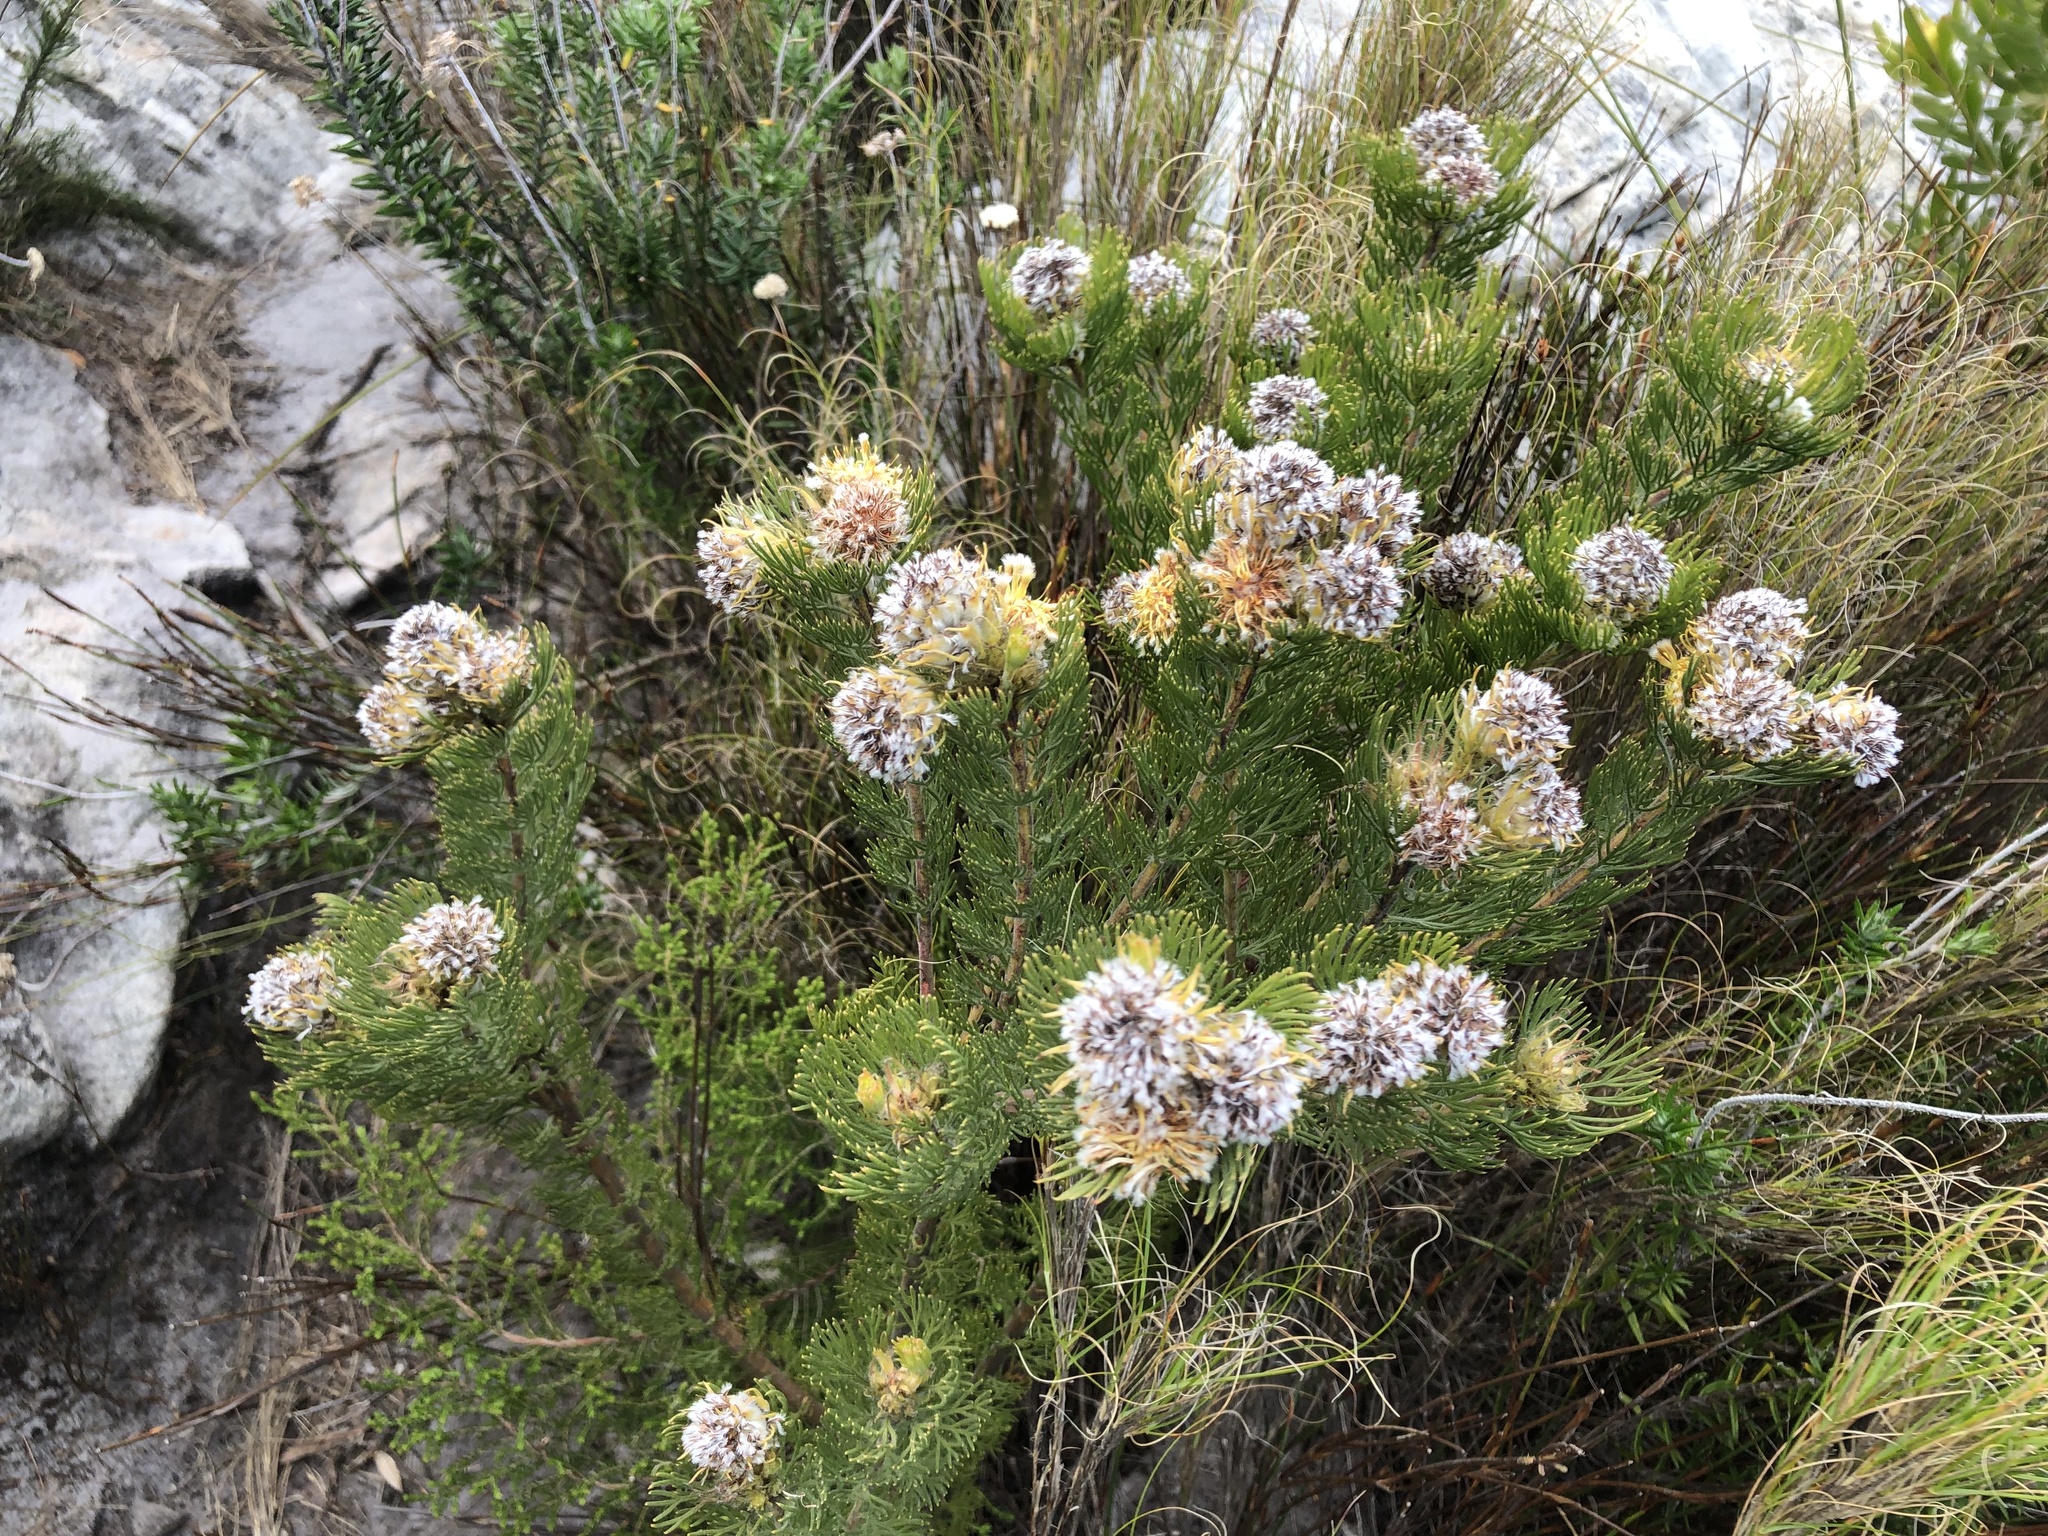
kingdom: Plantae
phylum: Tracheophyta
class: Magnoliopsida
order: Proteales
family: Proteaceae
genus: Serruria
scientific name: Serruria
